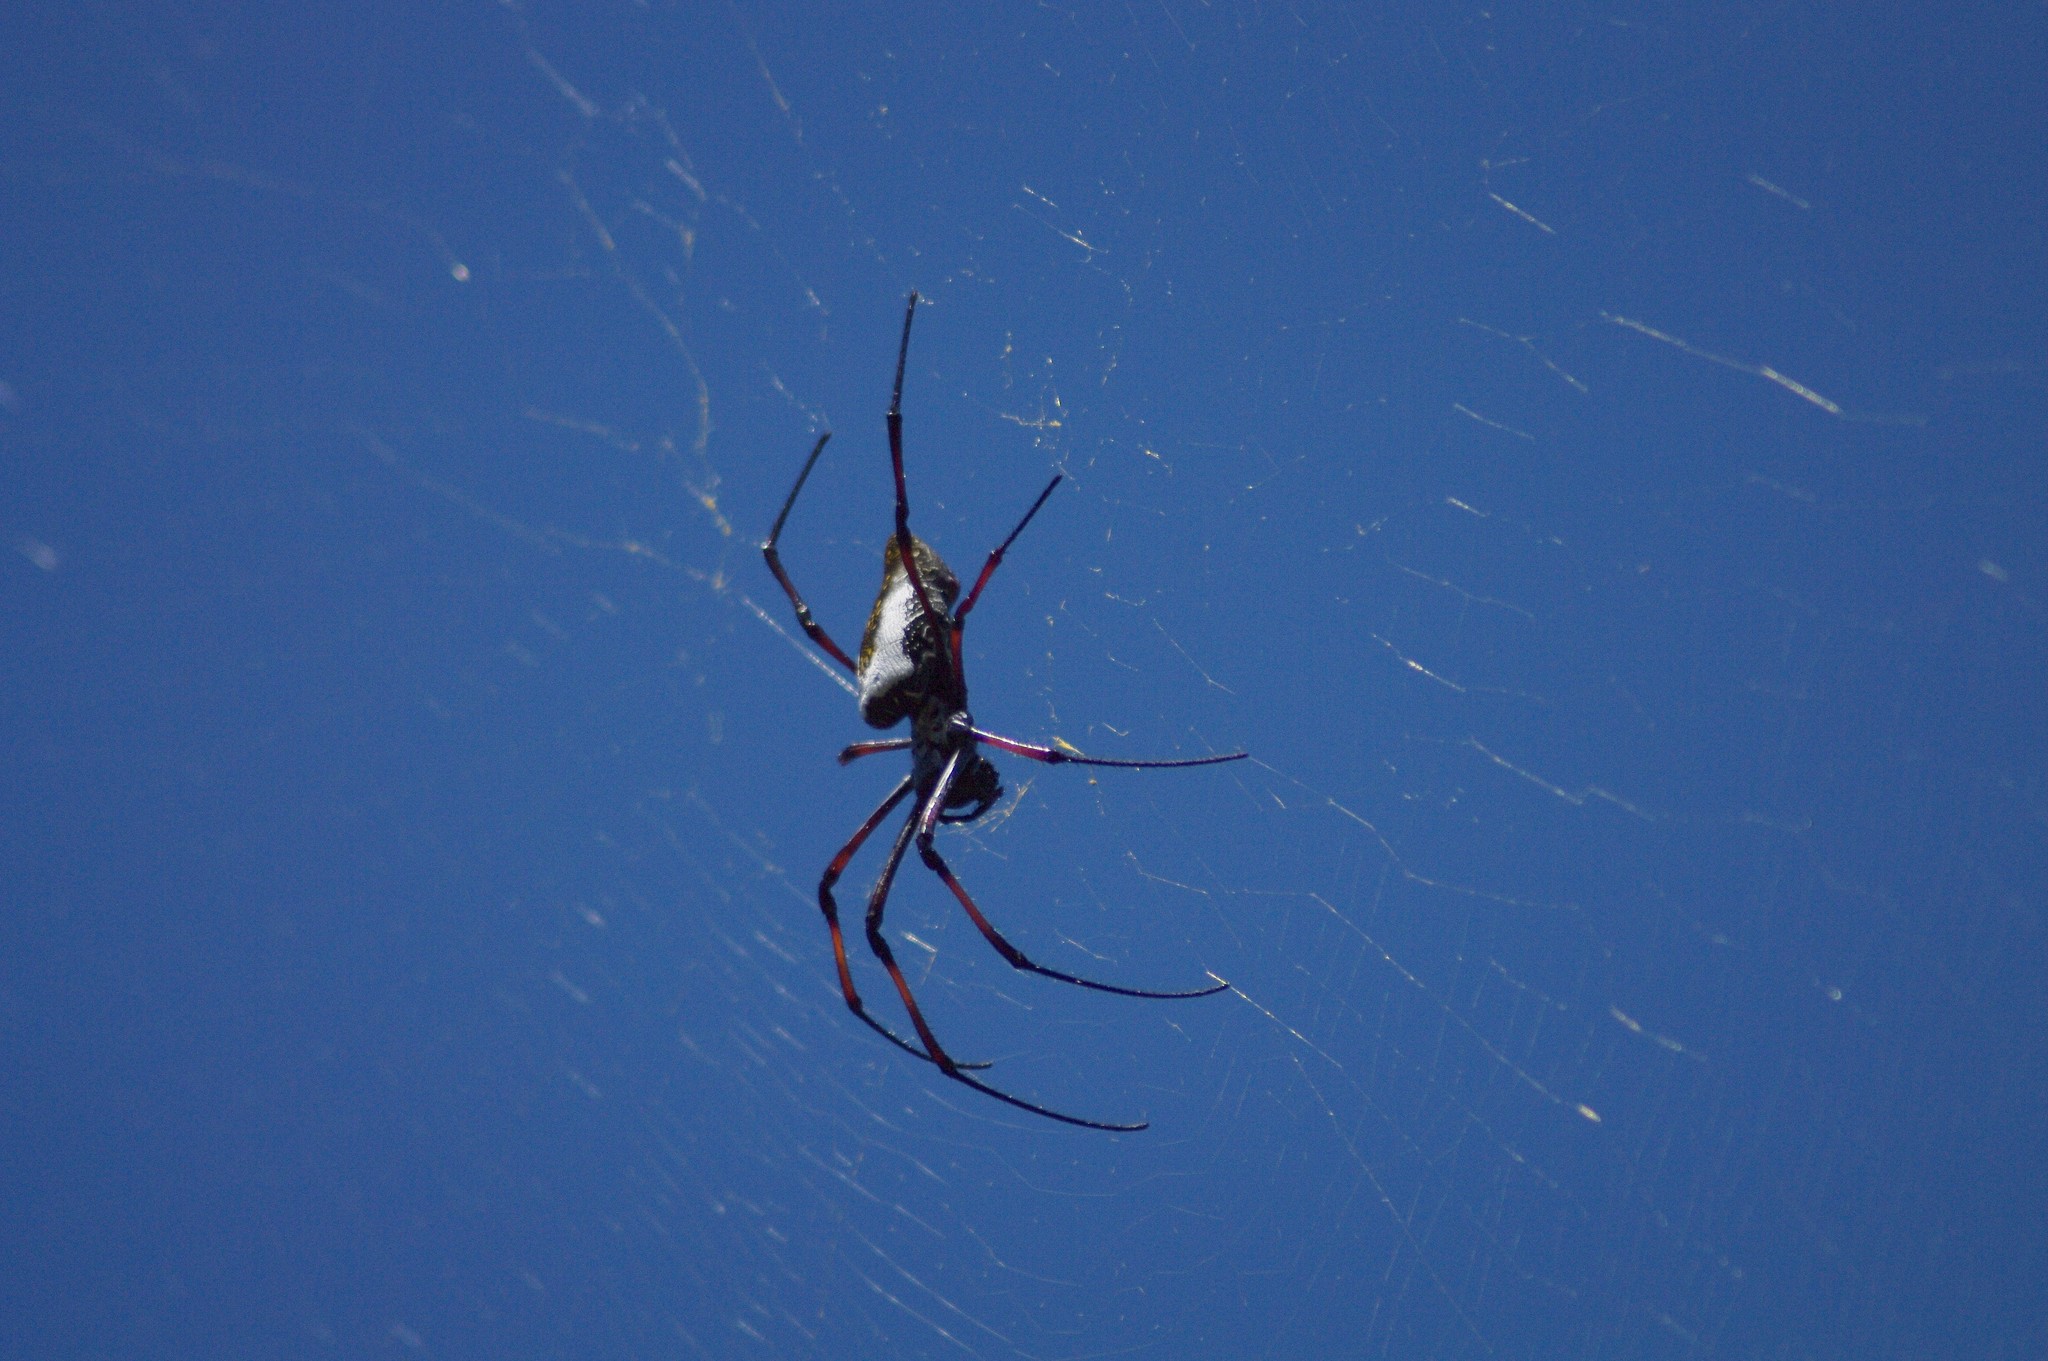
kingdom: Animalia
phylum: Arthropoda
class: Arachnida
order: Araneae
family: Araneidae
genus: Trichonephila
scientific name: Trichonephila inaurata
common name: Red-legged golden orb weaver
